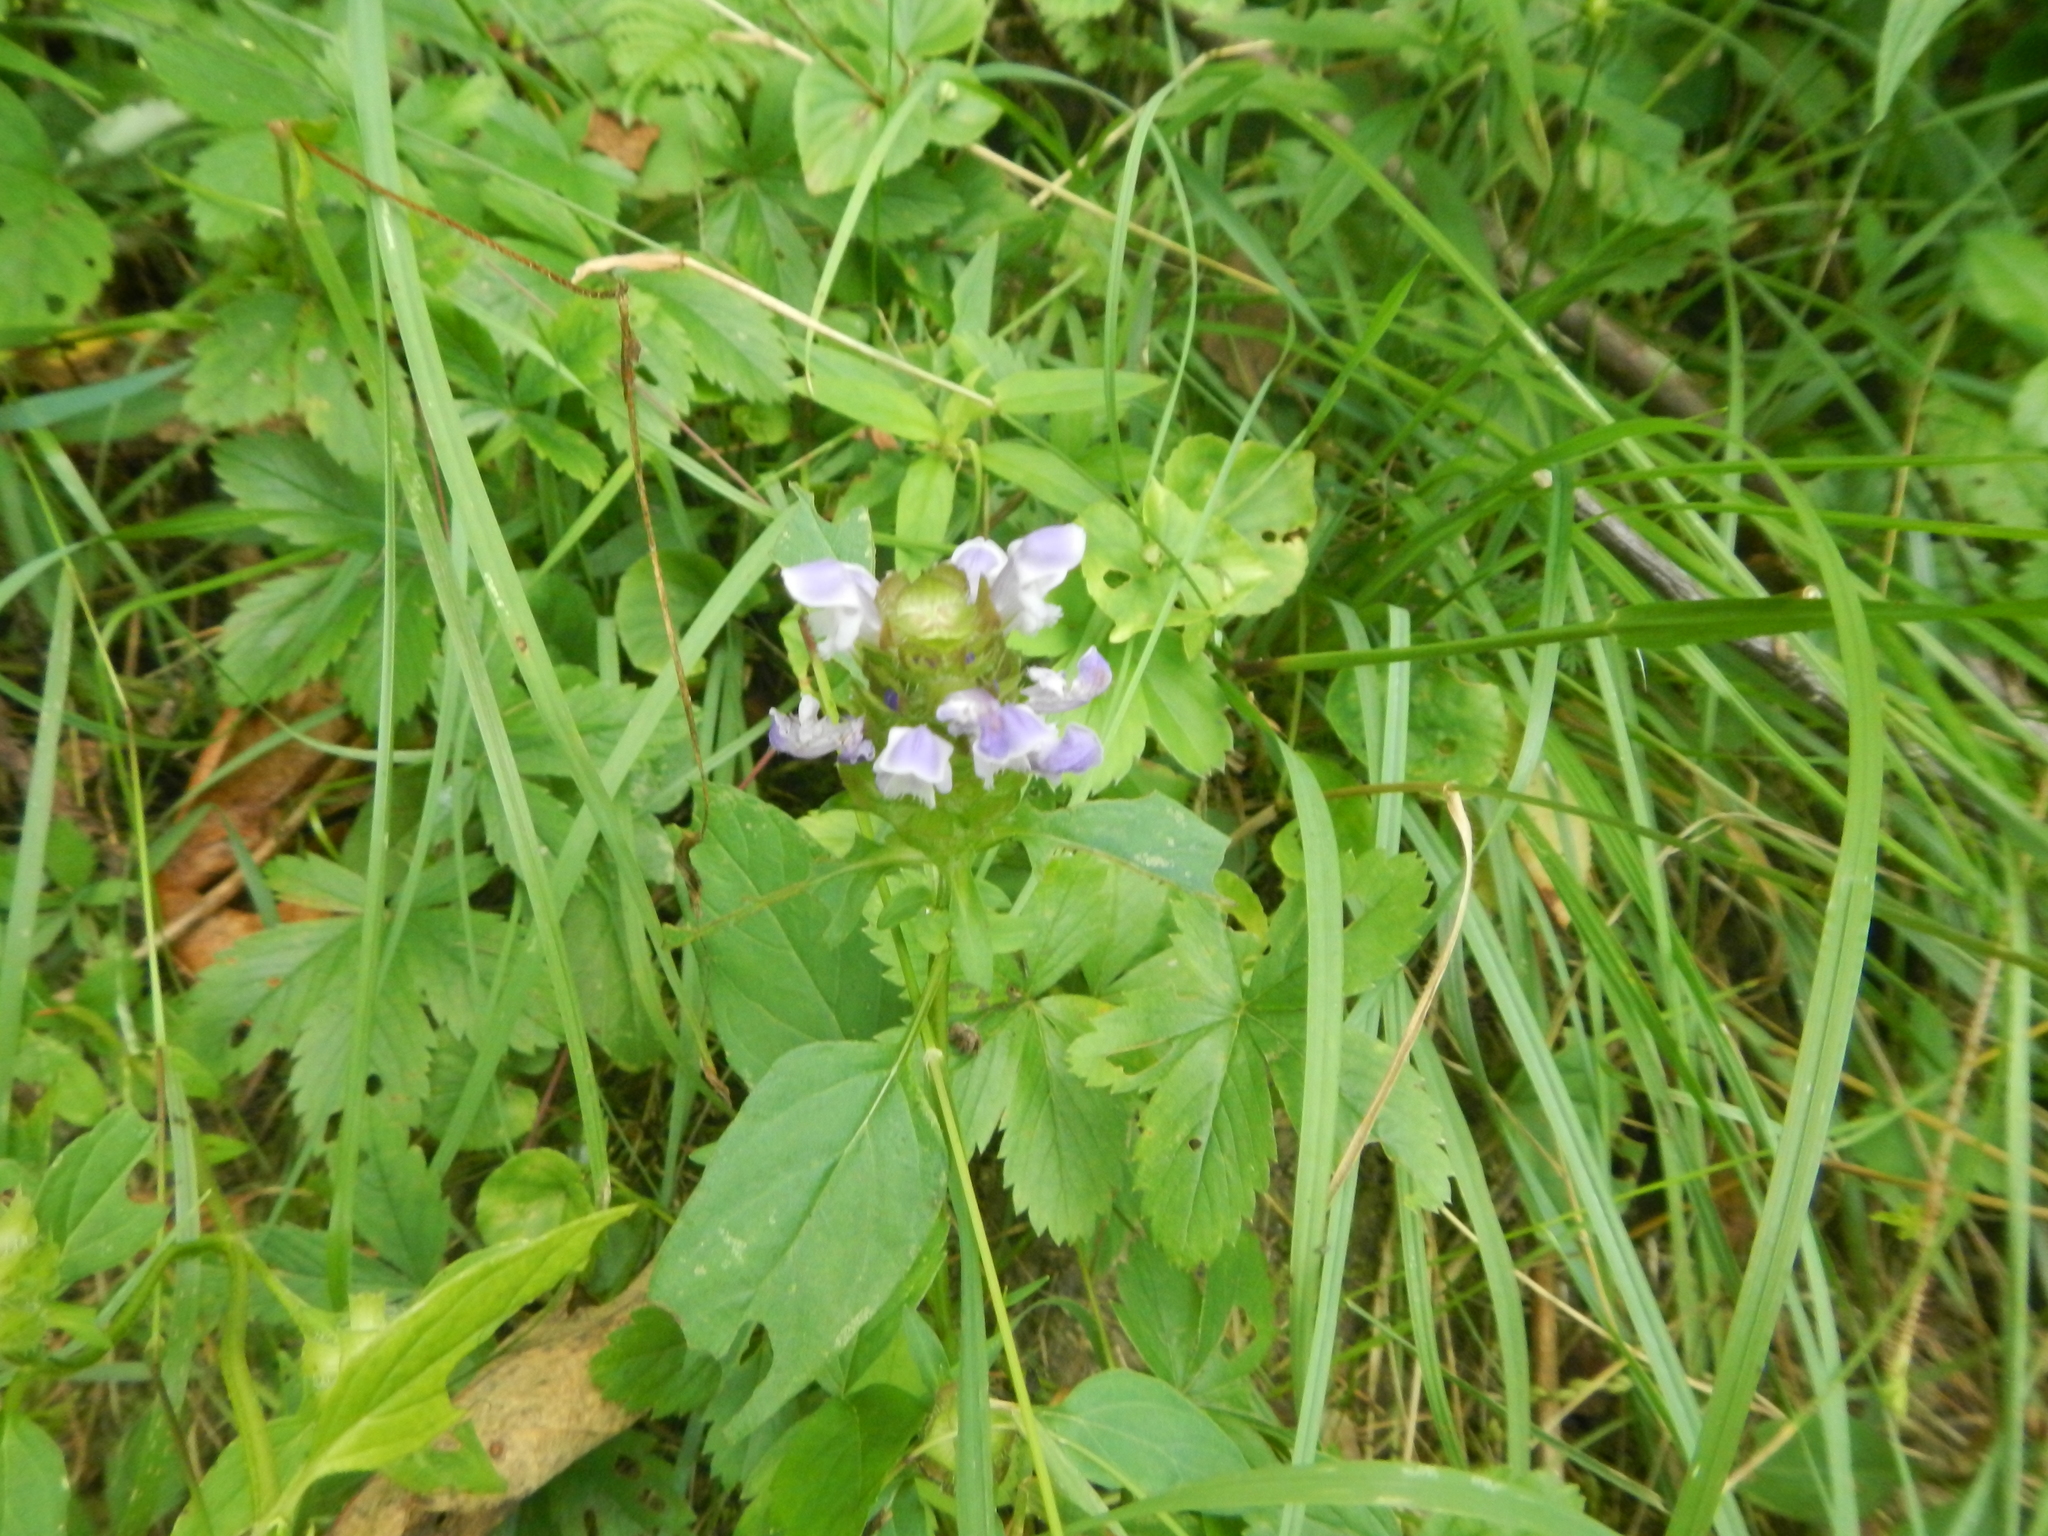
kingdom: Plantae
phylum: Tracheophyta
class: Magnoliopsida
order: Lamiales
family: Lamiaceae
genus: Prunella
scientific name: Prunella vulgaris
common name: Heal-all
